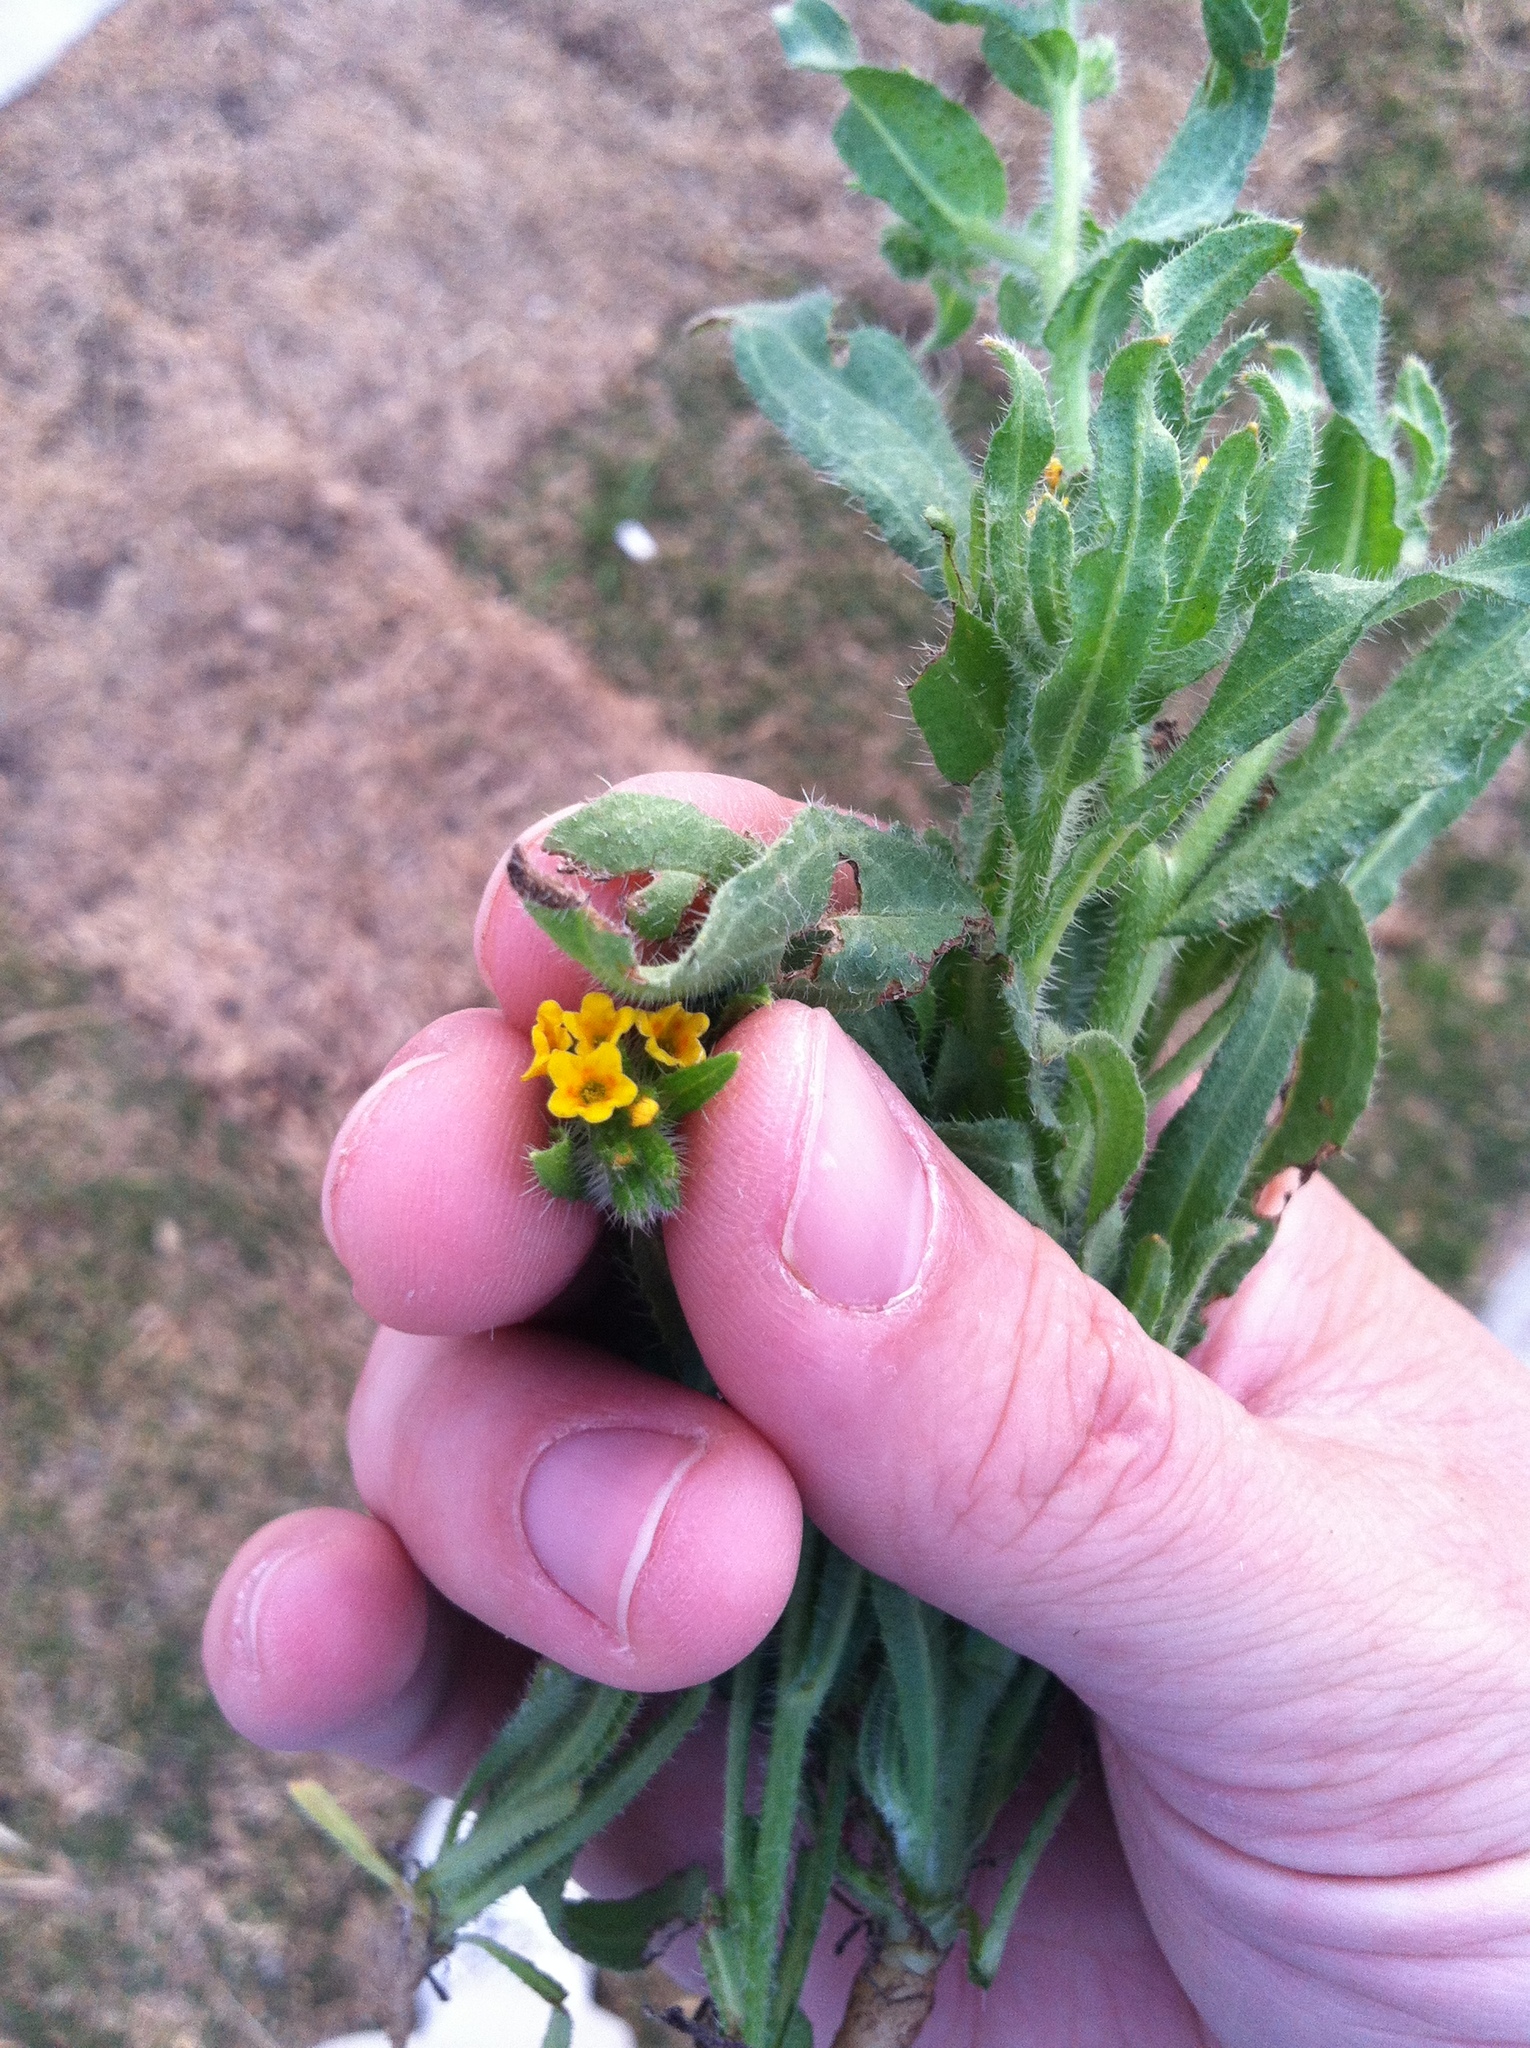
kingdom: Plantae
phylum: Tracheophyta
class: Magnoliopsida
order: Boraginales
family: Boraginaceae
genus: Amsinckia
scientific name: Amsinckia menziesii
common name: Menzies' fiddleneck
